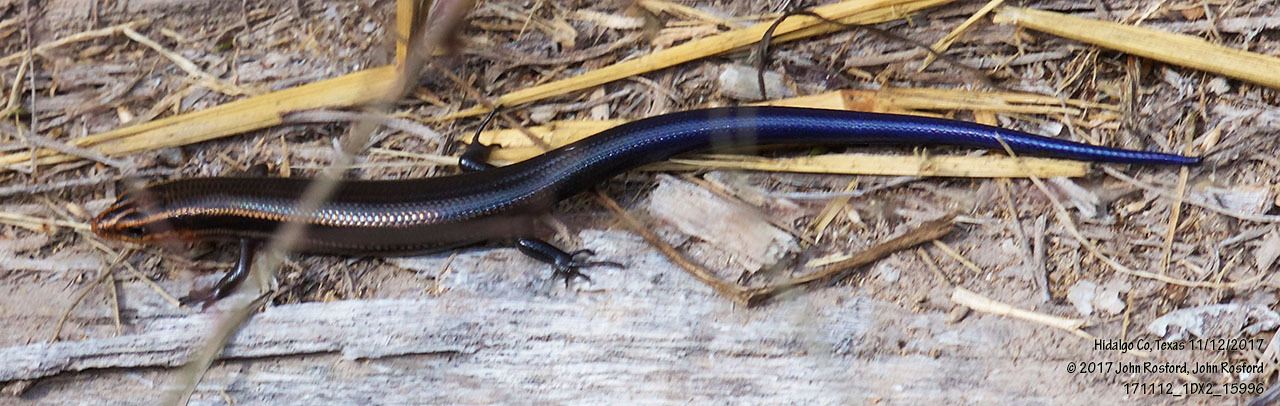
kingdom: Animalia
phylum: Chordata
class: Squamata
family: Scincidae
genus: Plestiodon
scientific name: Plestiodon tetragrammus
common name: Four-lined skink
